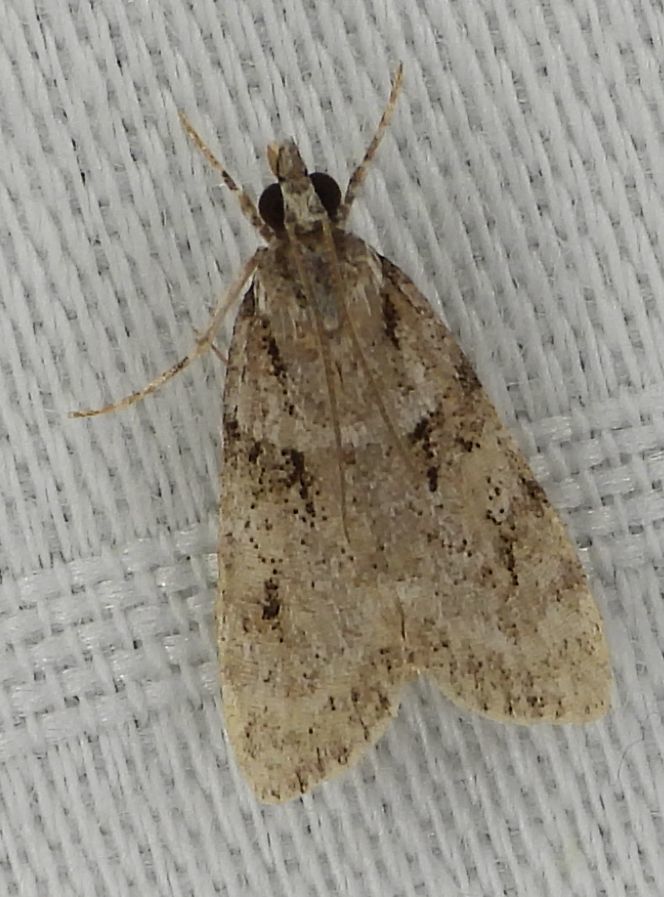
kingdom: Animalia
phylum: Arthropoda
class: Insecta
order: Lepidoptera
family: Crambidae
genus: Scoparia
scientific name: Scoparia biplagialis
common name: Double-striped scoparia moth
